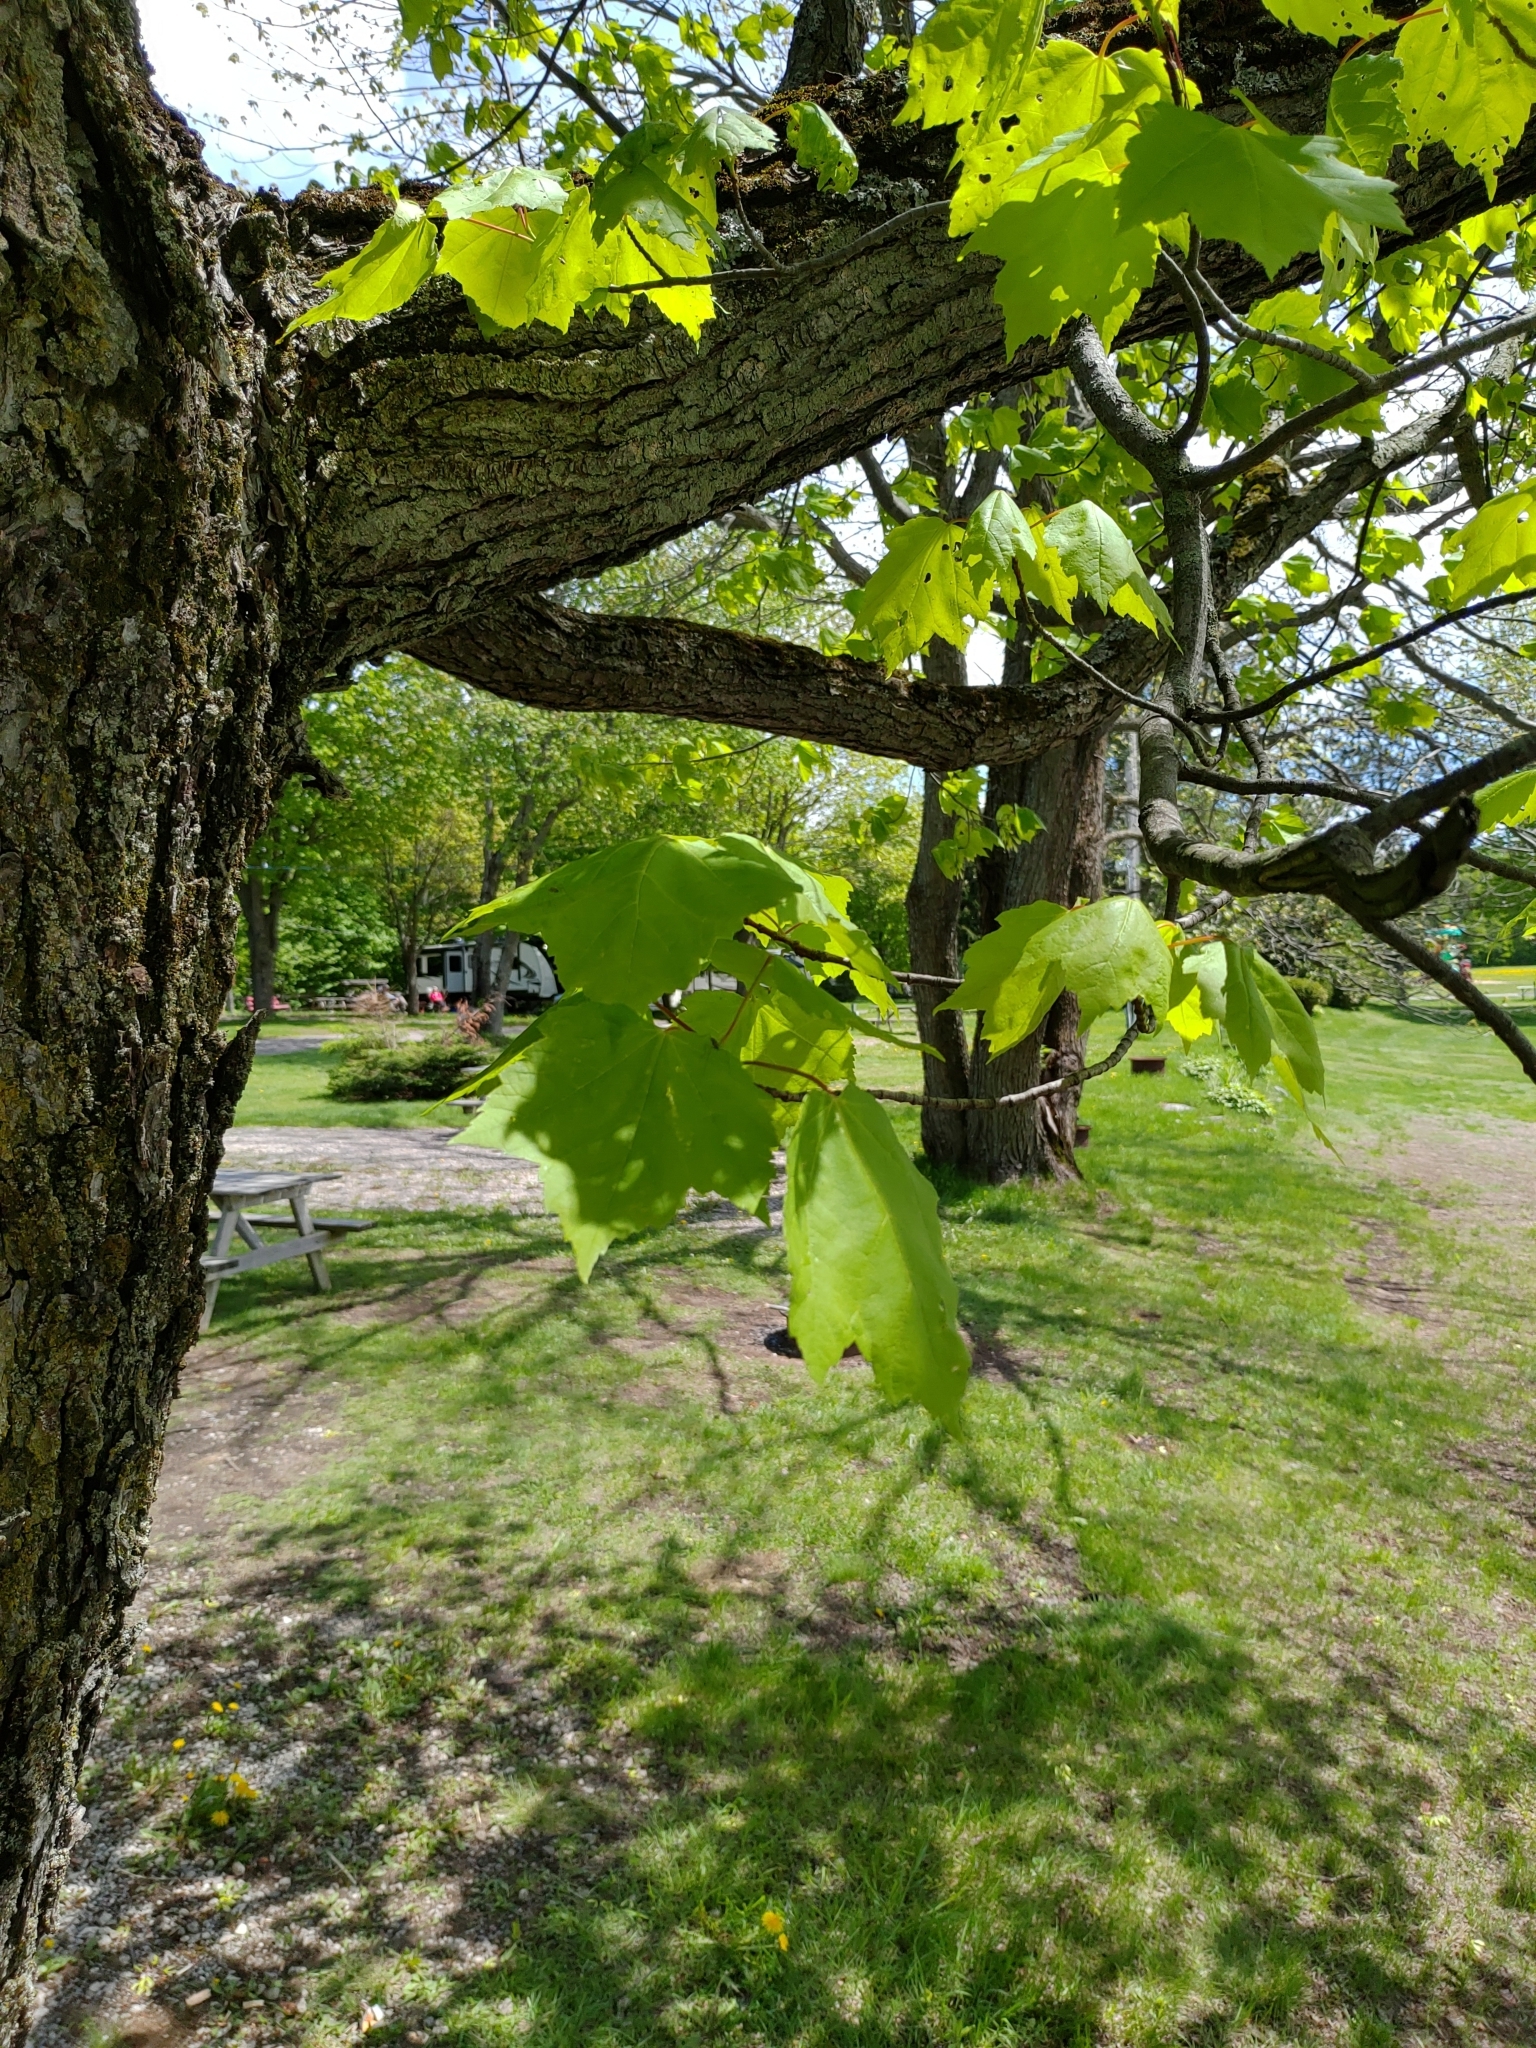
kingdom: Plantae
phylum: Tracheophyta
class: Magnoliopsida
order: Sapindales
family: Sapindaceae
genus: Acer
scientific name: Acer rubrum
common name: Red maple
